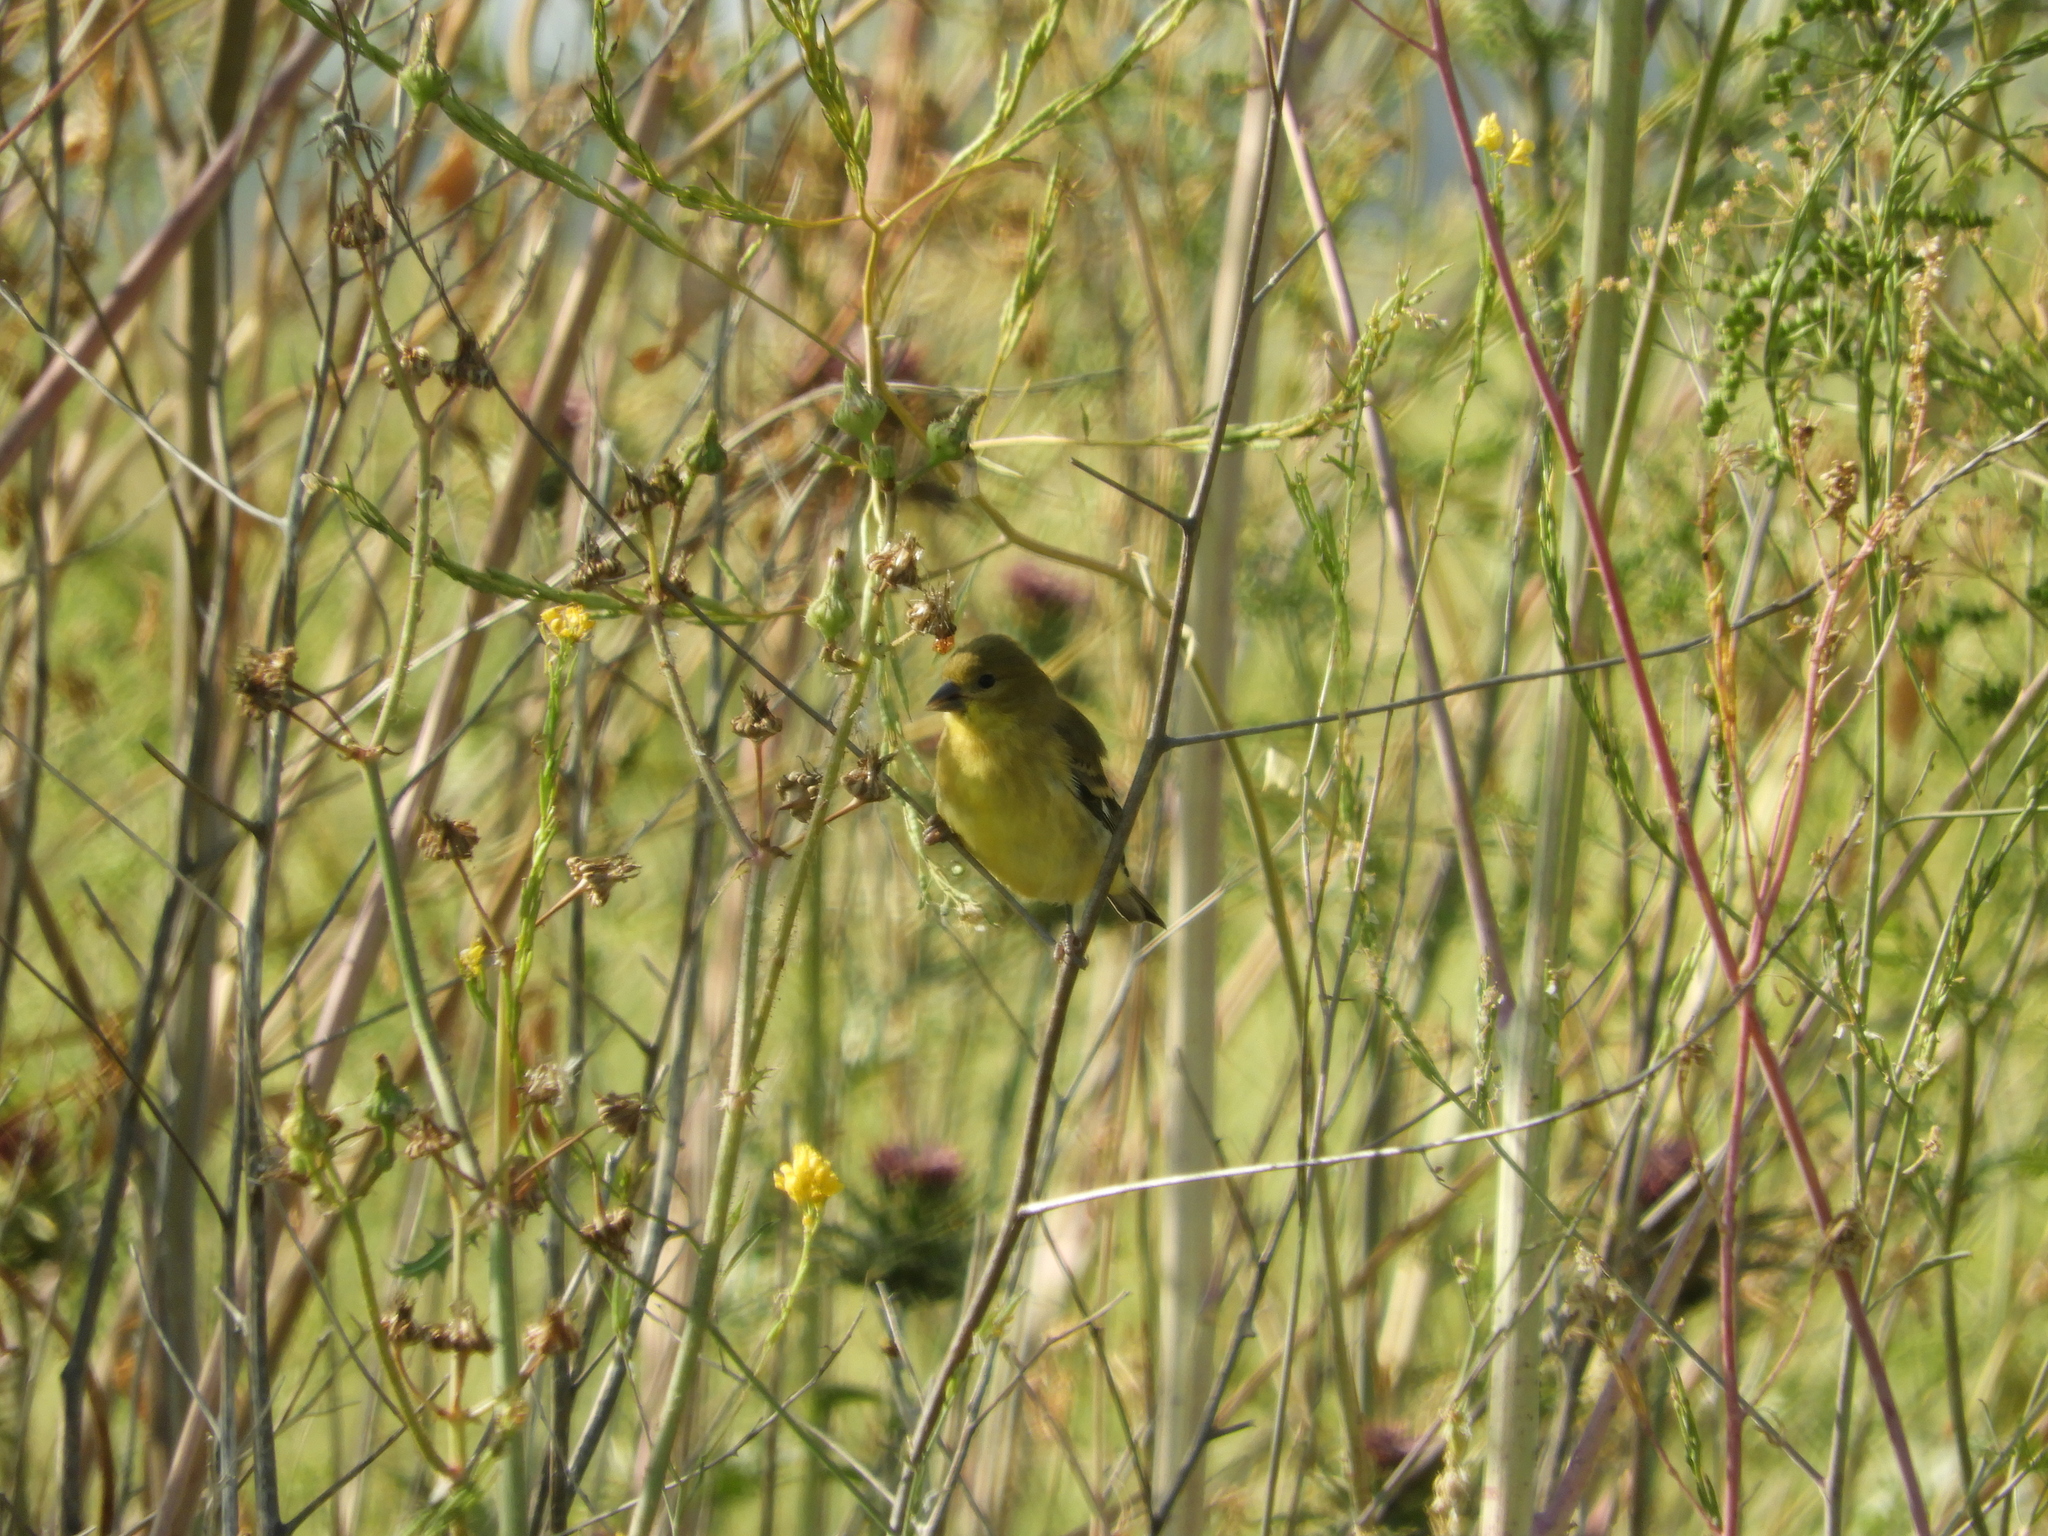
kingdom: Animalia
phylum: Chordata
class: Aves
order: Passeriformes
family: Fringillidae
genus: Spinus
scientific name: Spinus psaltria
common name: Lesser goldfinch
